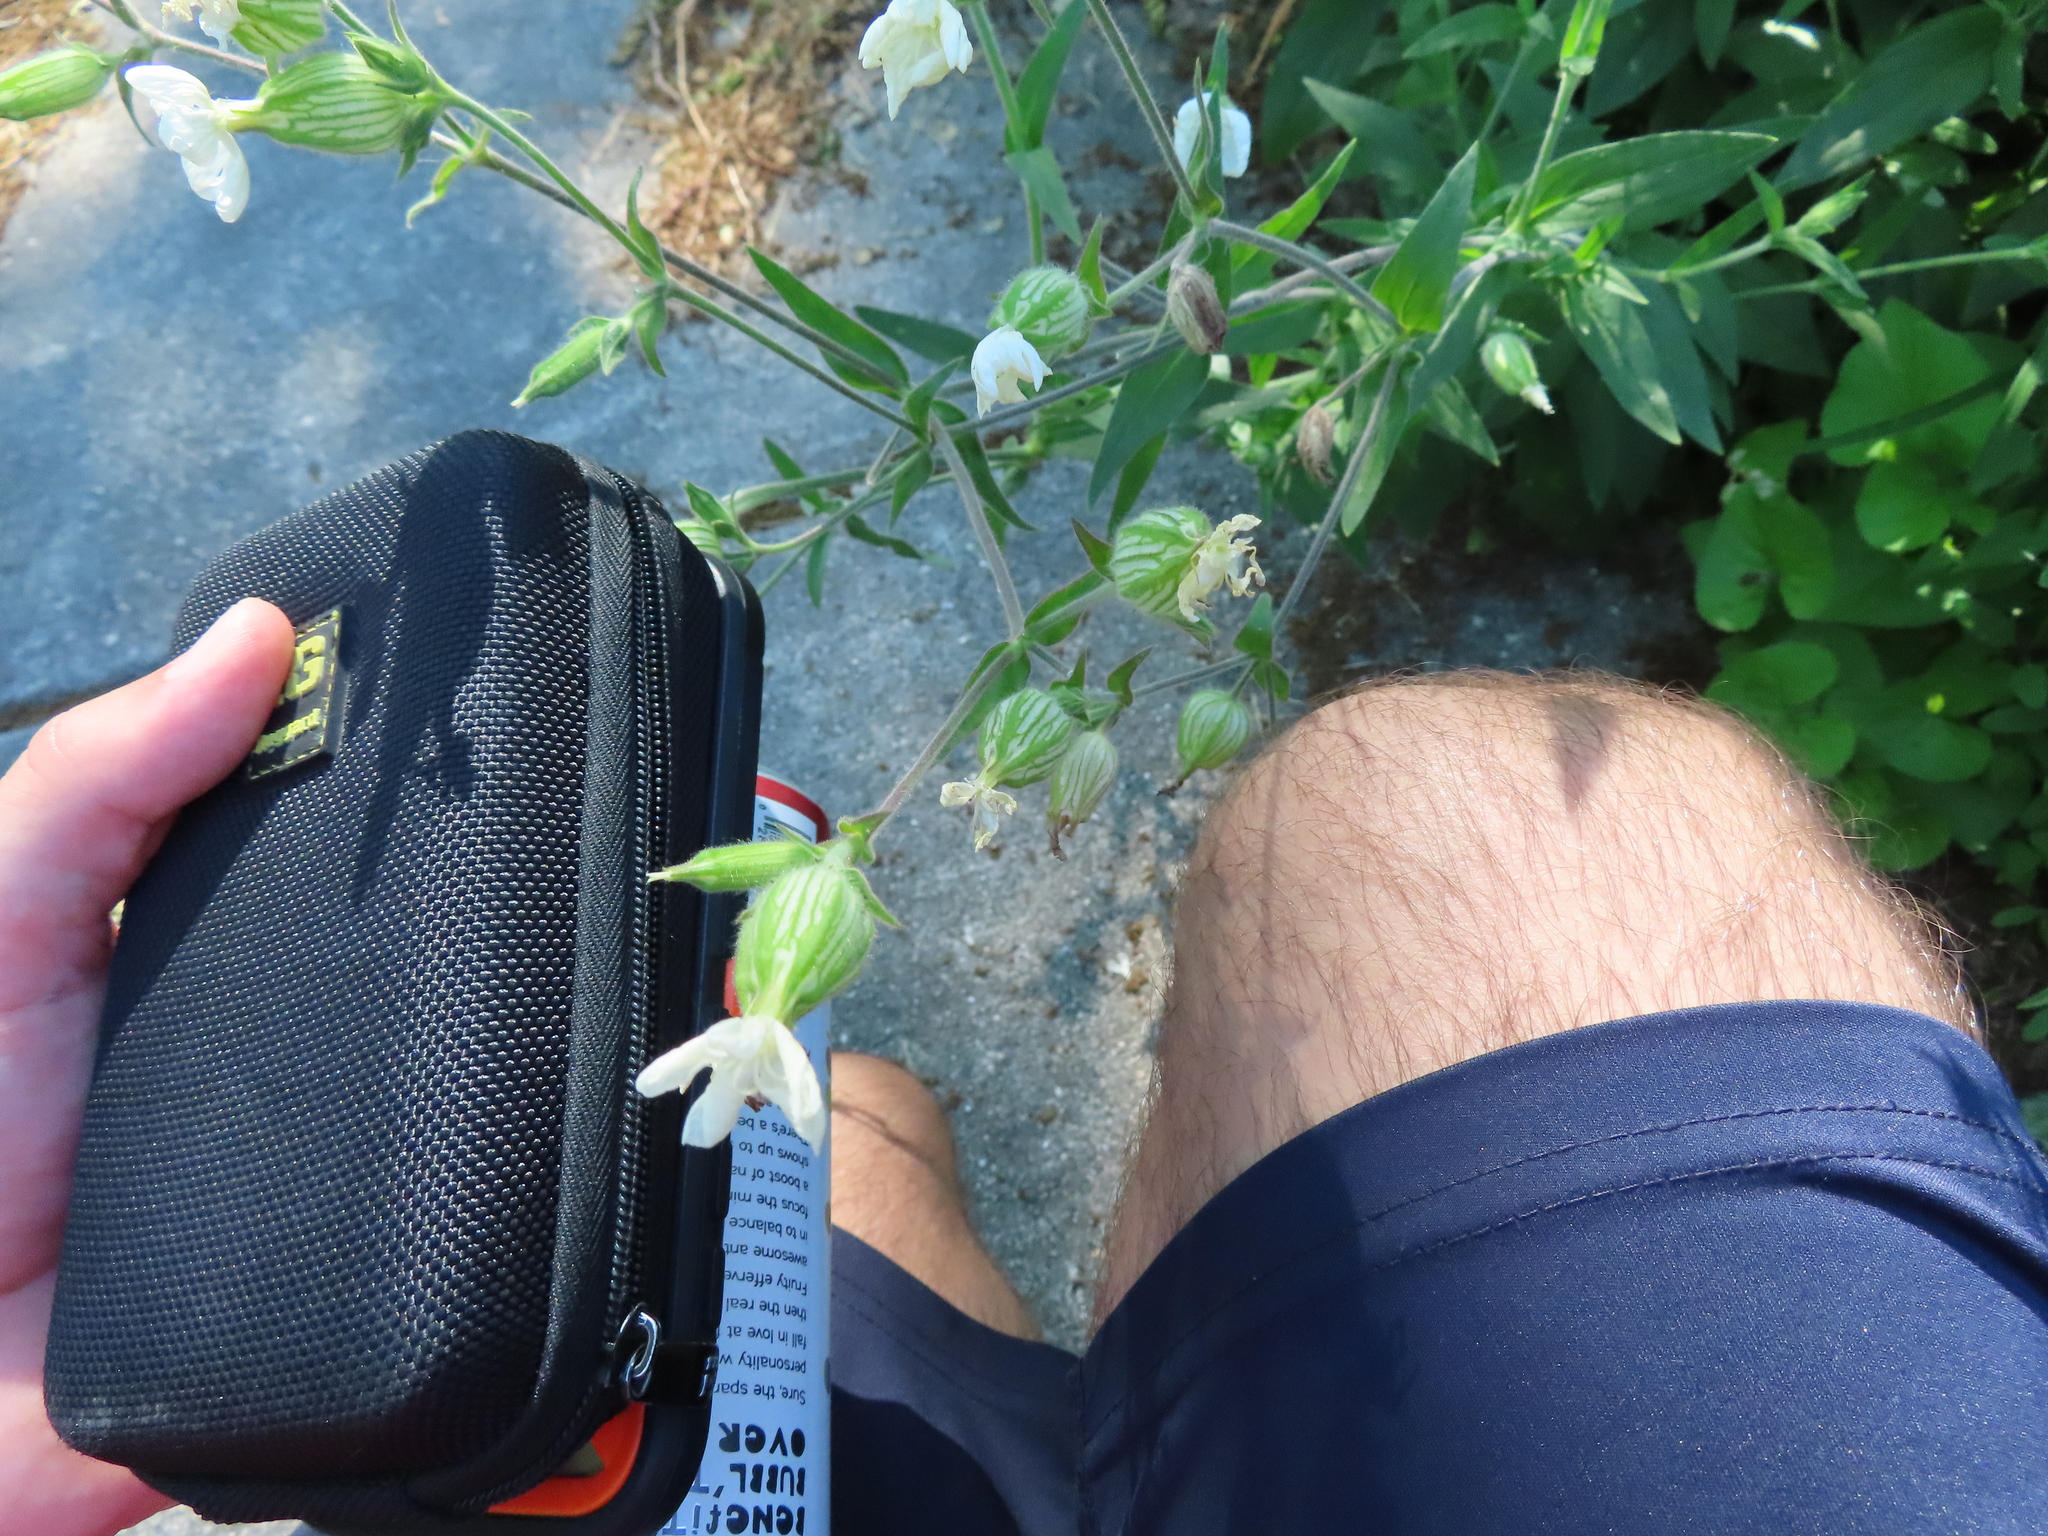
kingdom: Plantae
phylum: Tracheophyta
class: Magnoliopsida
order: Caryophyllales
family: Caryophyllaceae
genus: Silene
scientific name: Silene latifolia
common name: White campion
